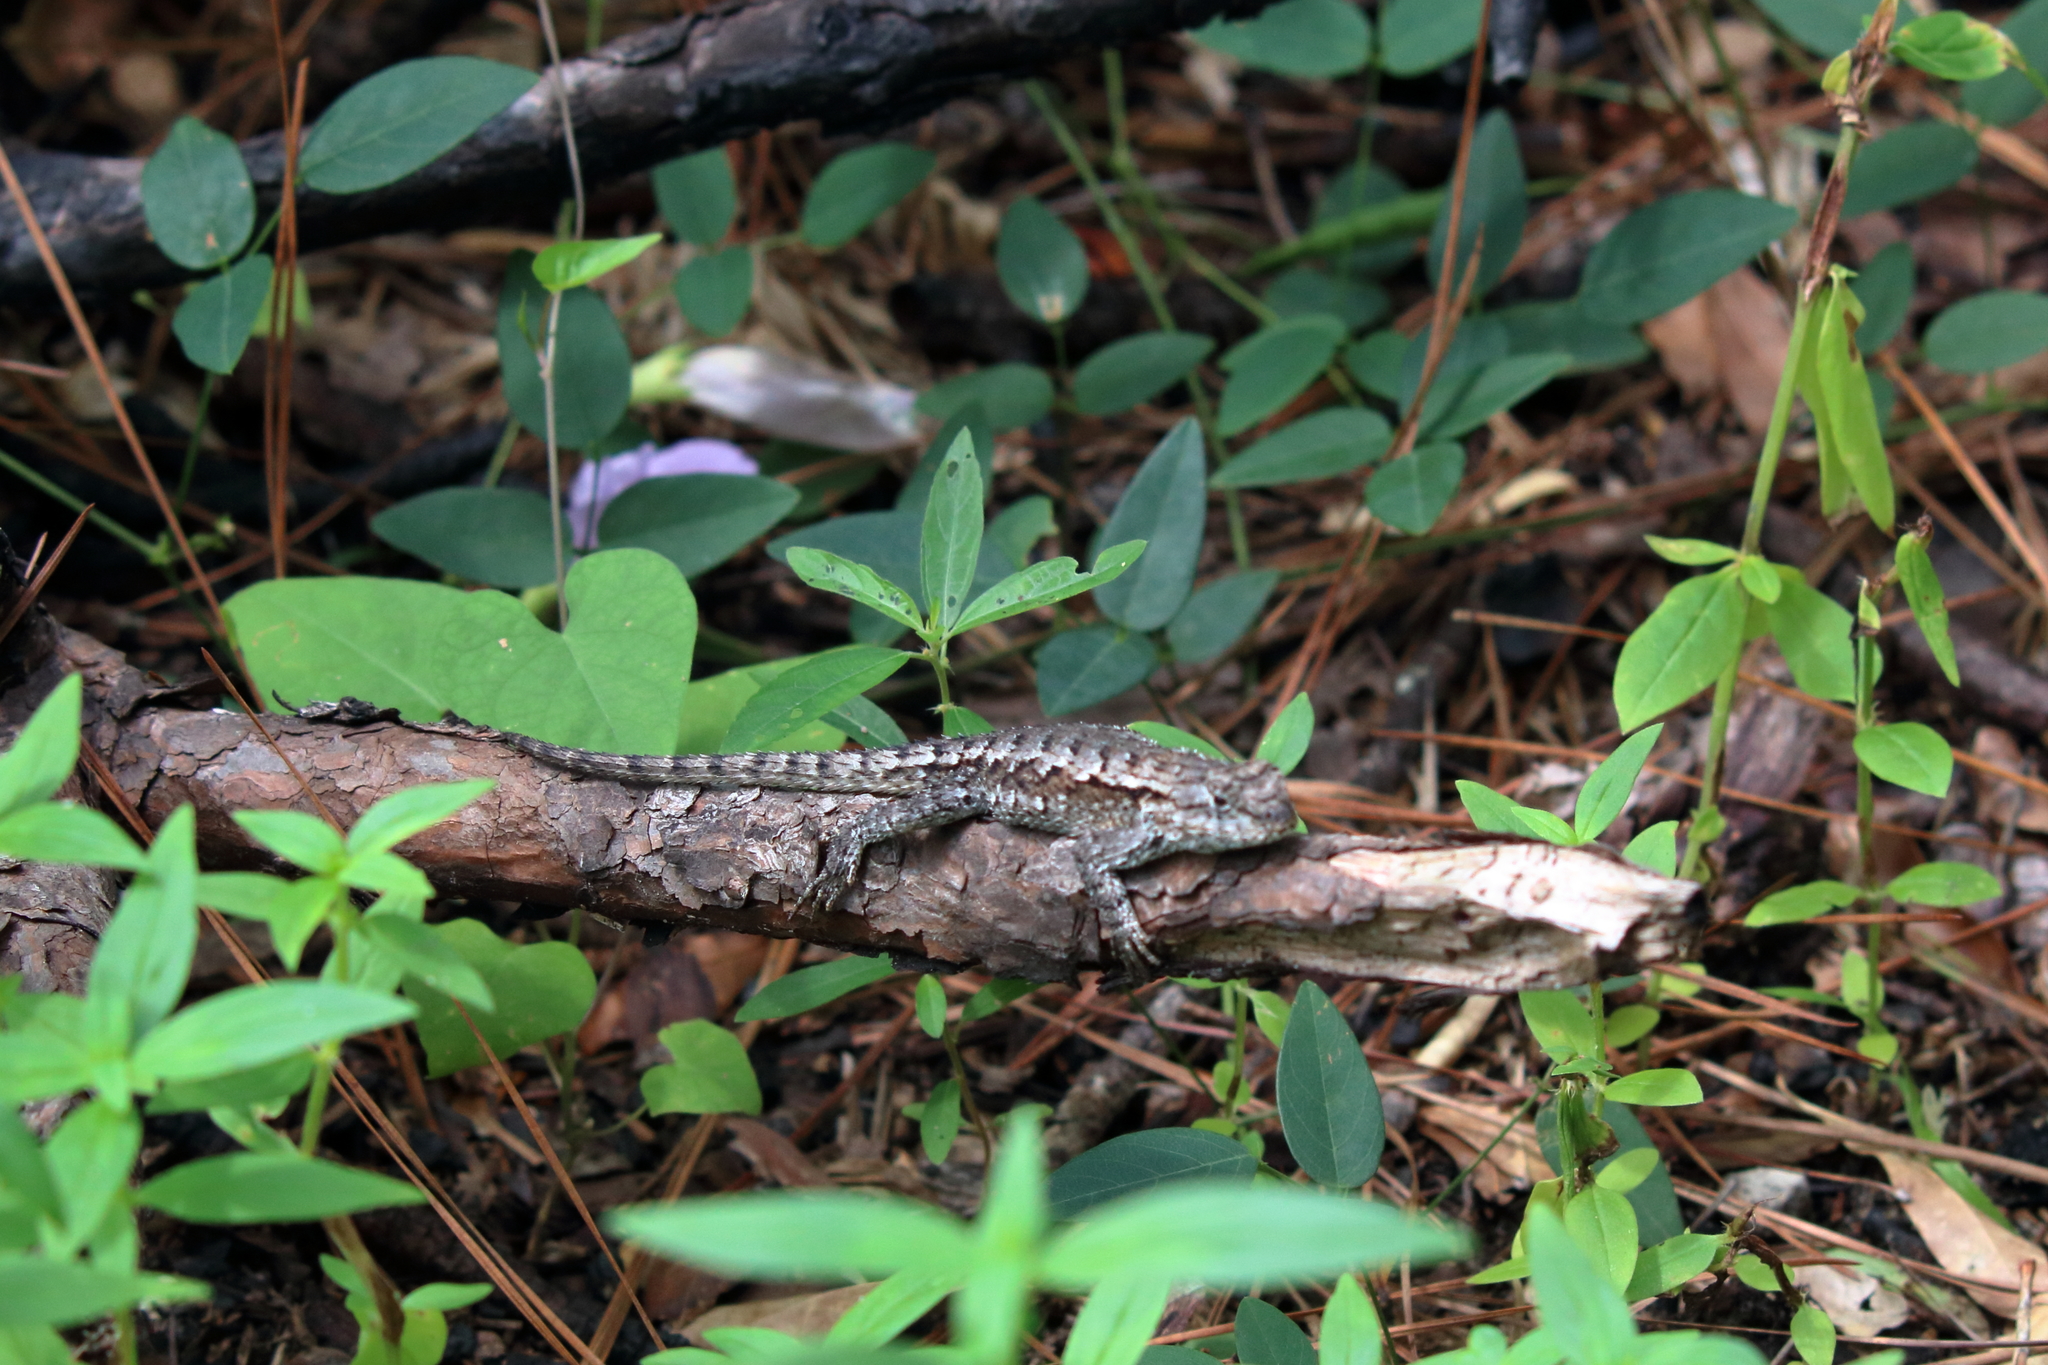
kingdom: Animalia
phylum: Chordata
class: Squamata
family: Phrynosomatidae
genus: Sceloporus
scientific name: Sceloporus consobrinus
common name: Southern prairie lizard
